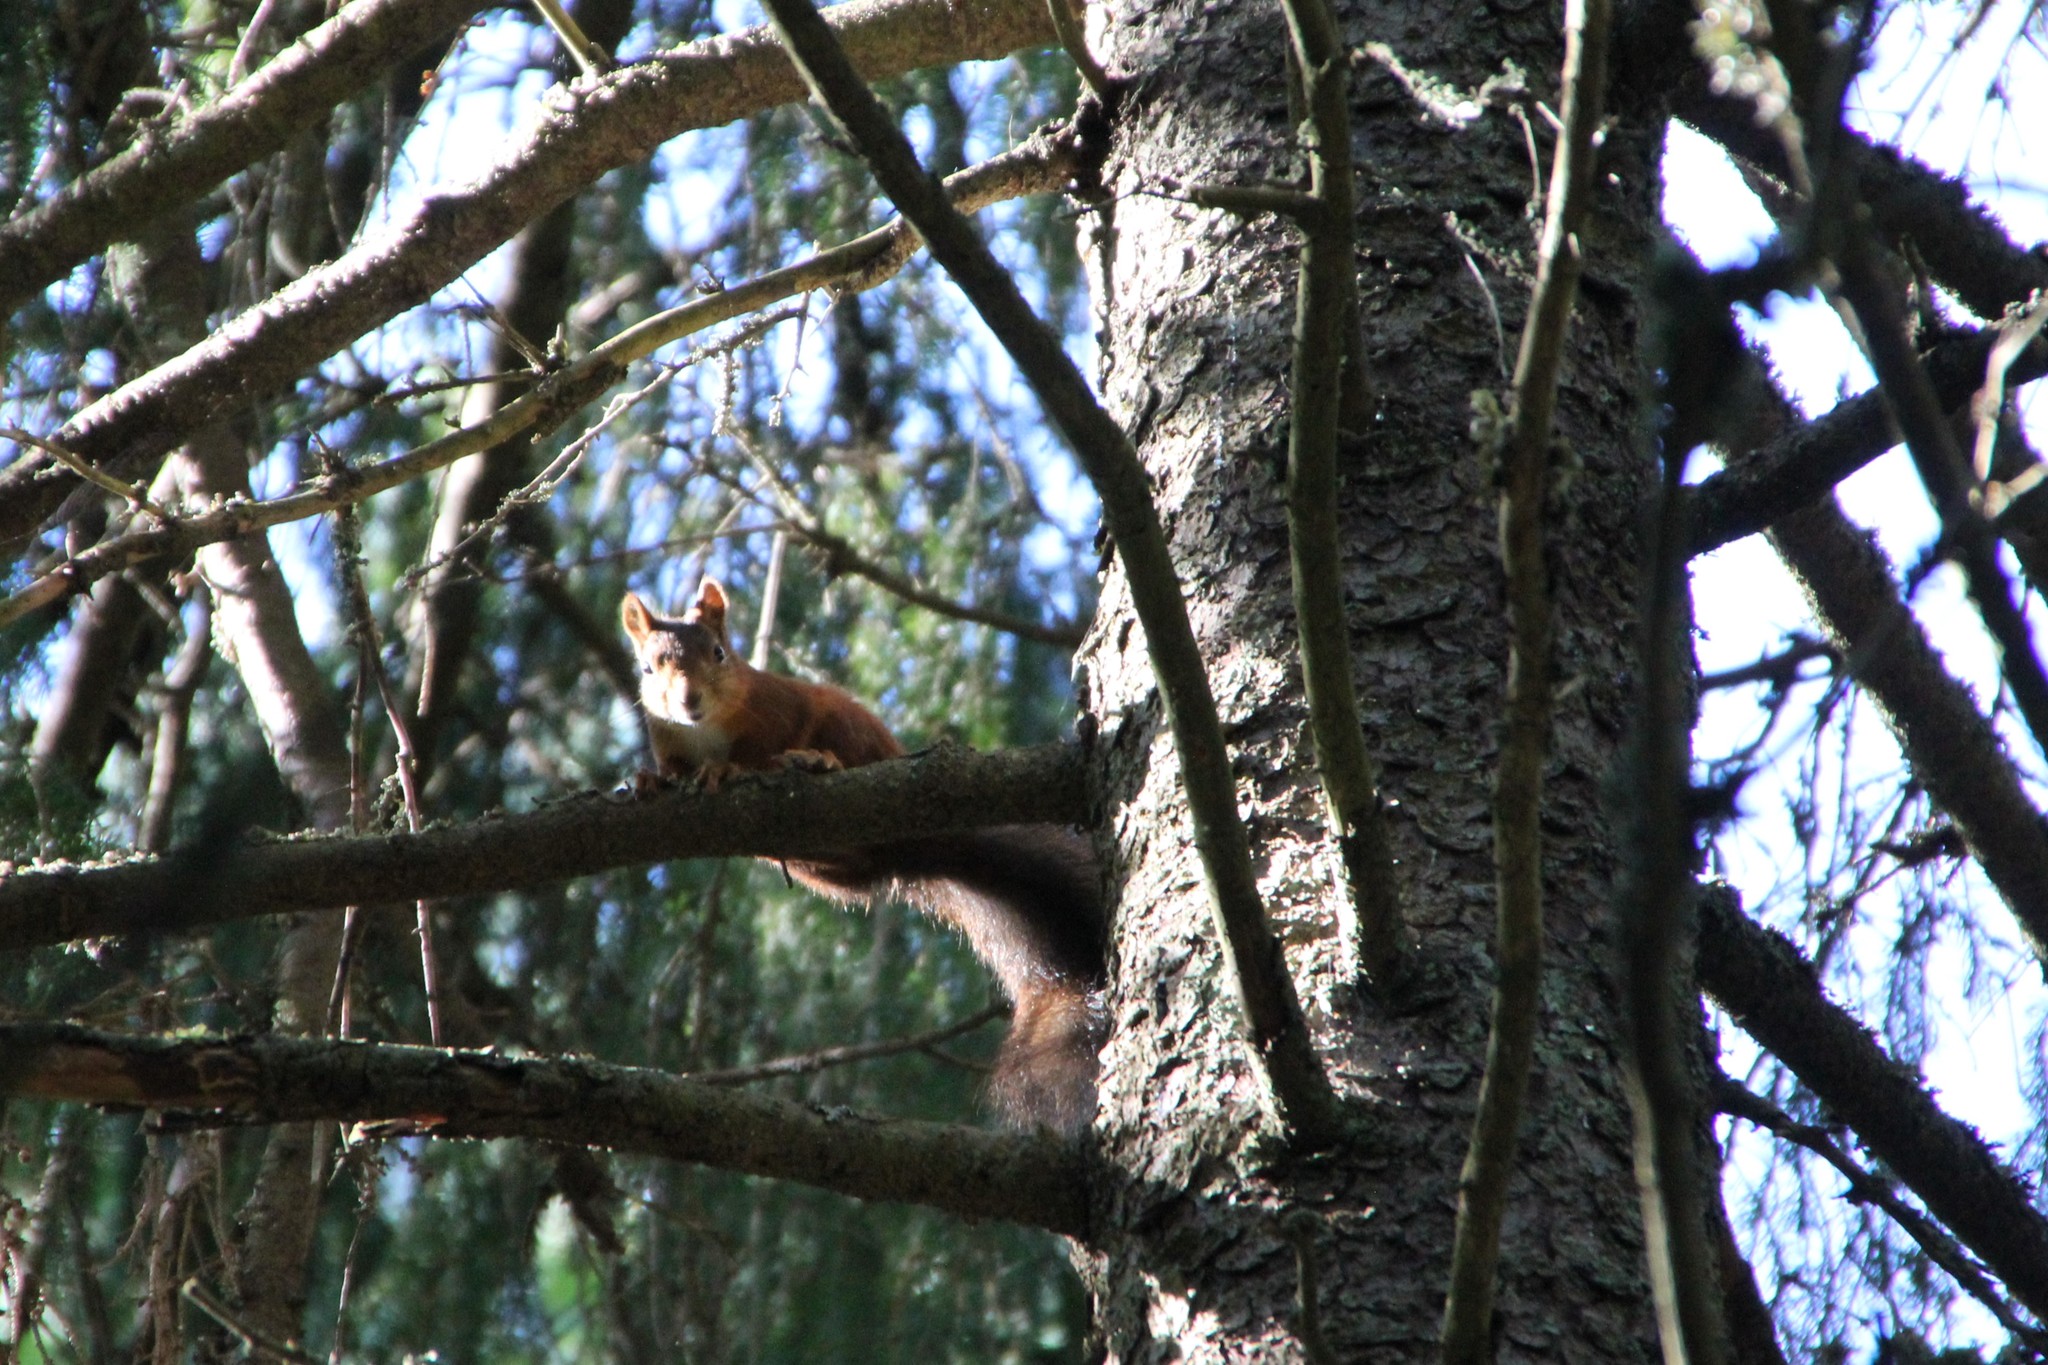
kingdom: Animalia
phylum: Chordata
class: Mammalia
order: Rodentia
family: Sciuridae
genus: Sciurus
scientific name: Sciurus vulgaris
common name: Eurasian red squirrel
